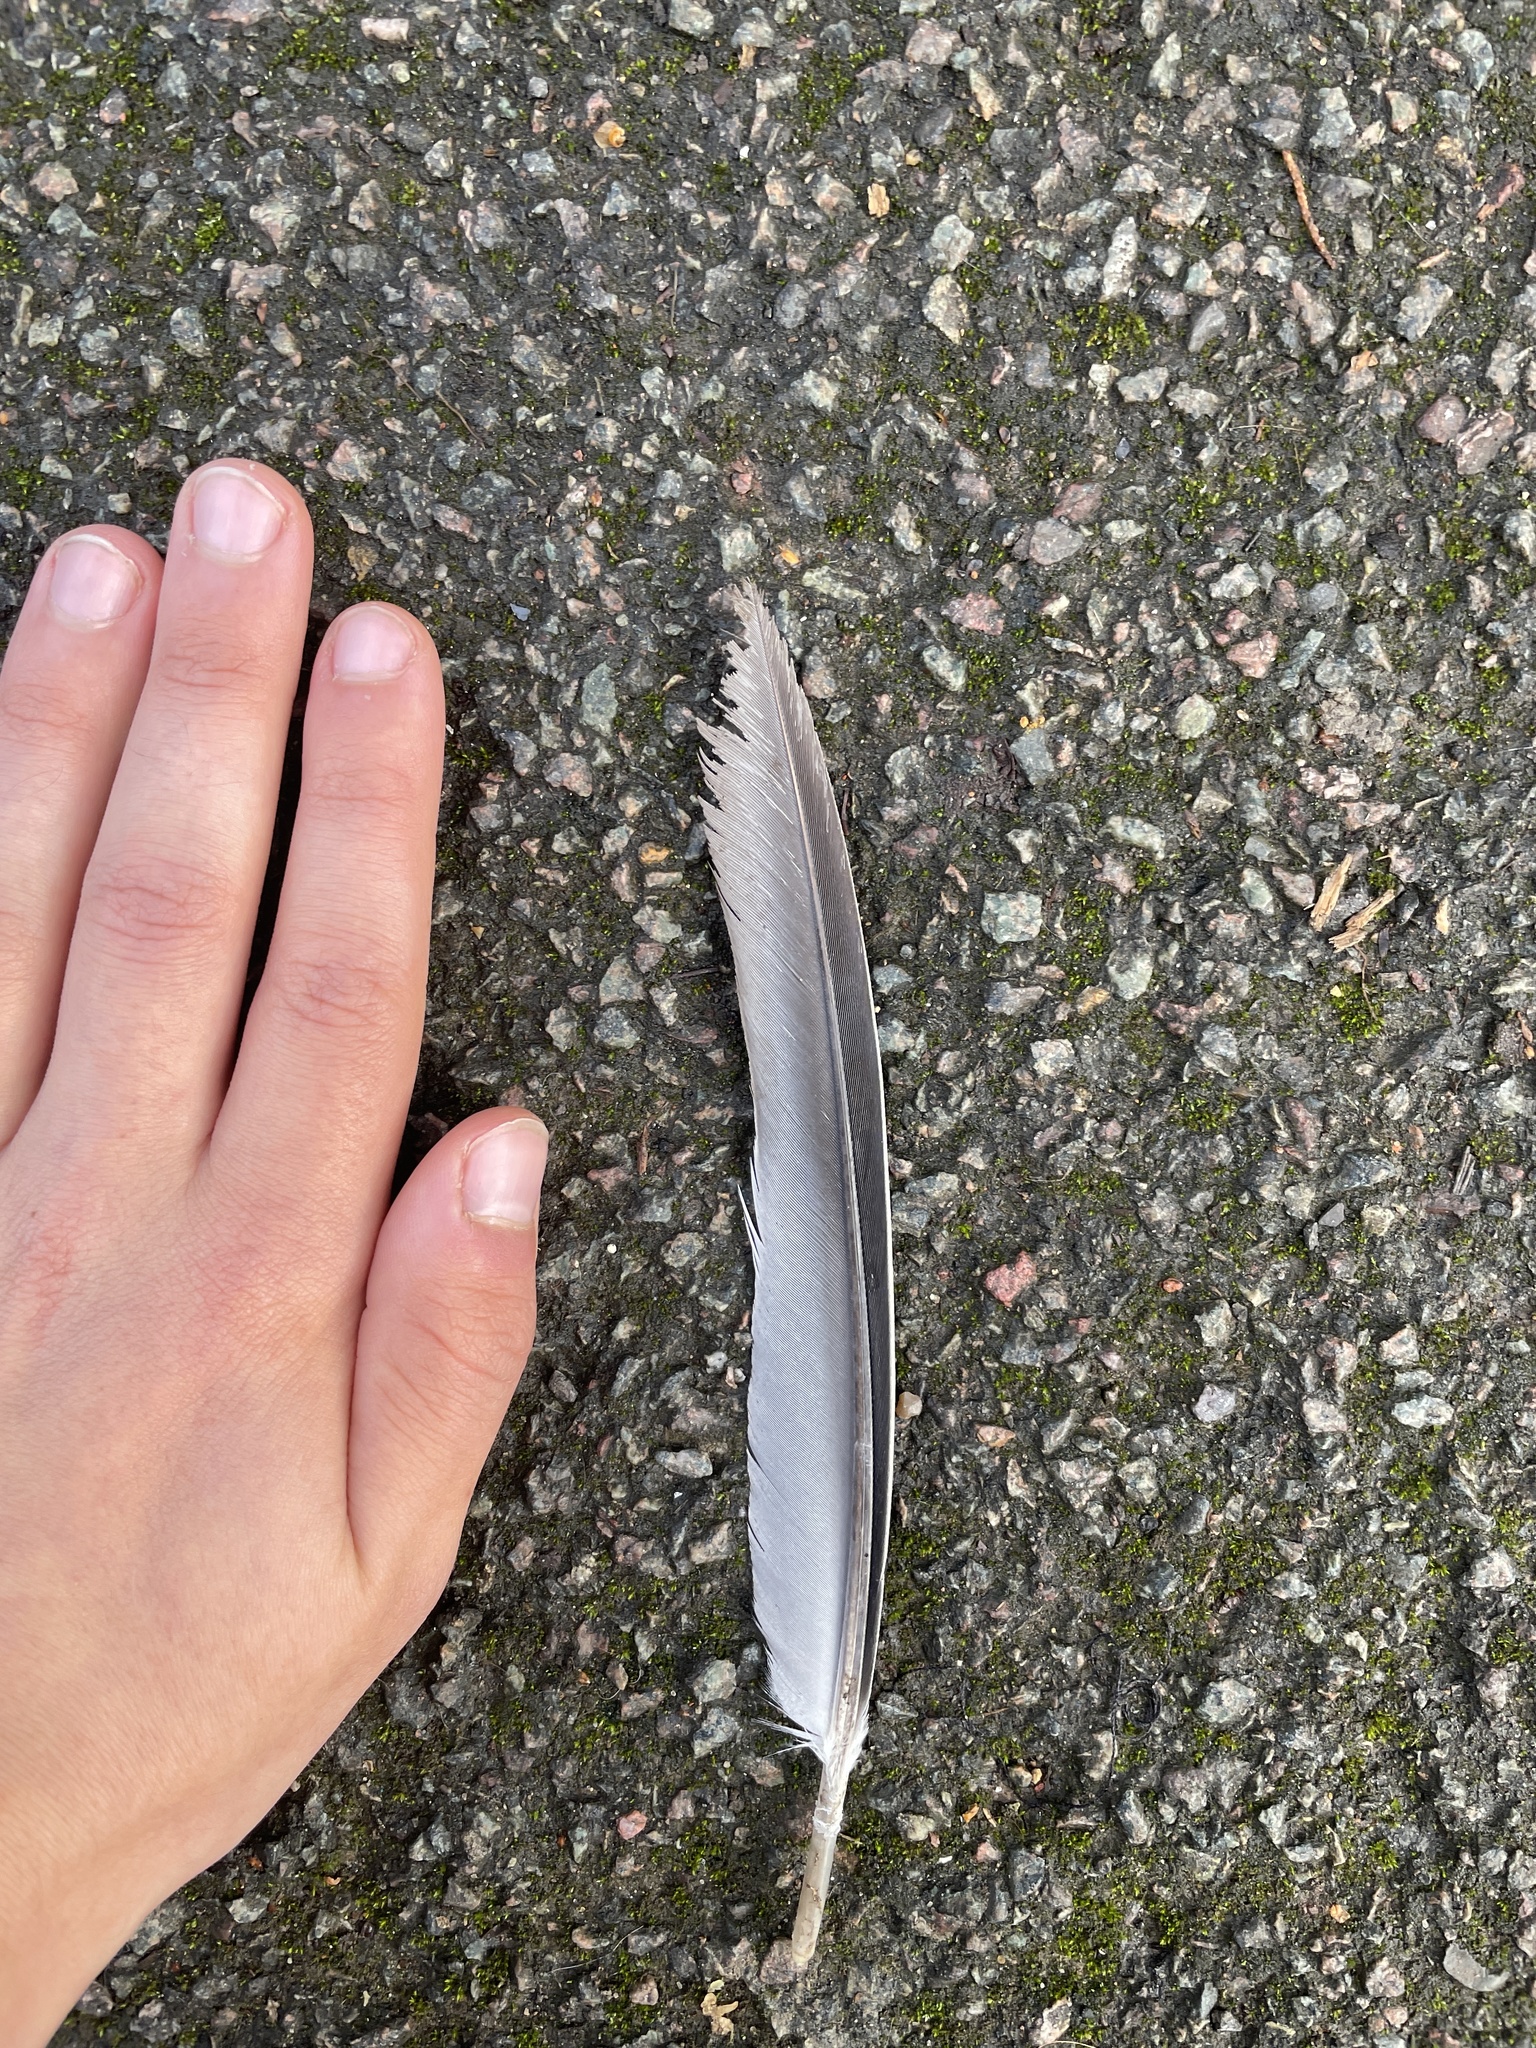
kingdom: Animalia
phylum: Chordata
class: Aves
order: Columbiformes
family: Columbidae
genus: Columba
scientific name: Columba palumbus
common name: Common wood pigeon
